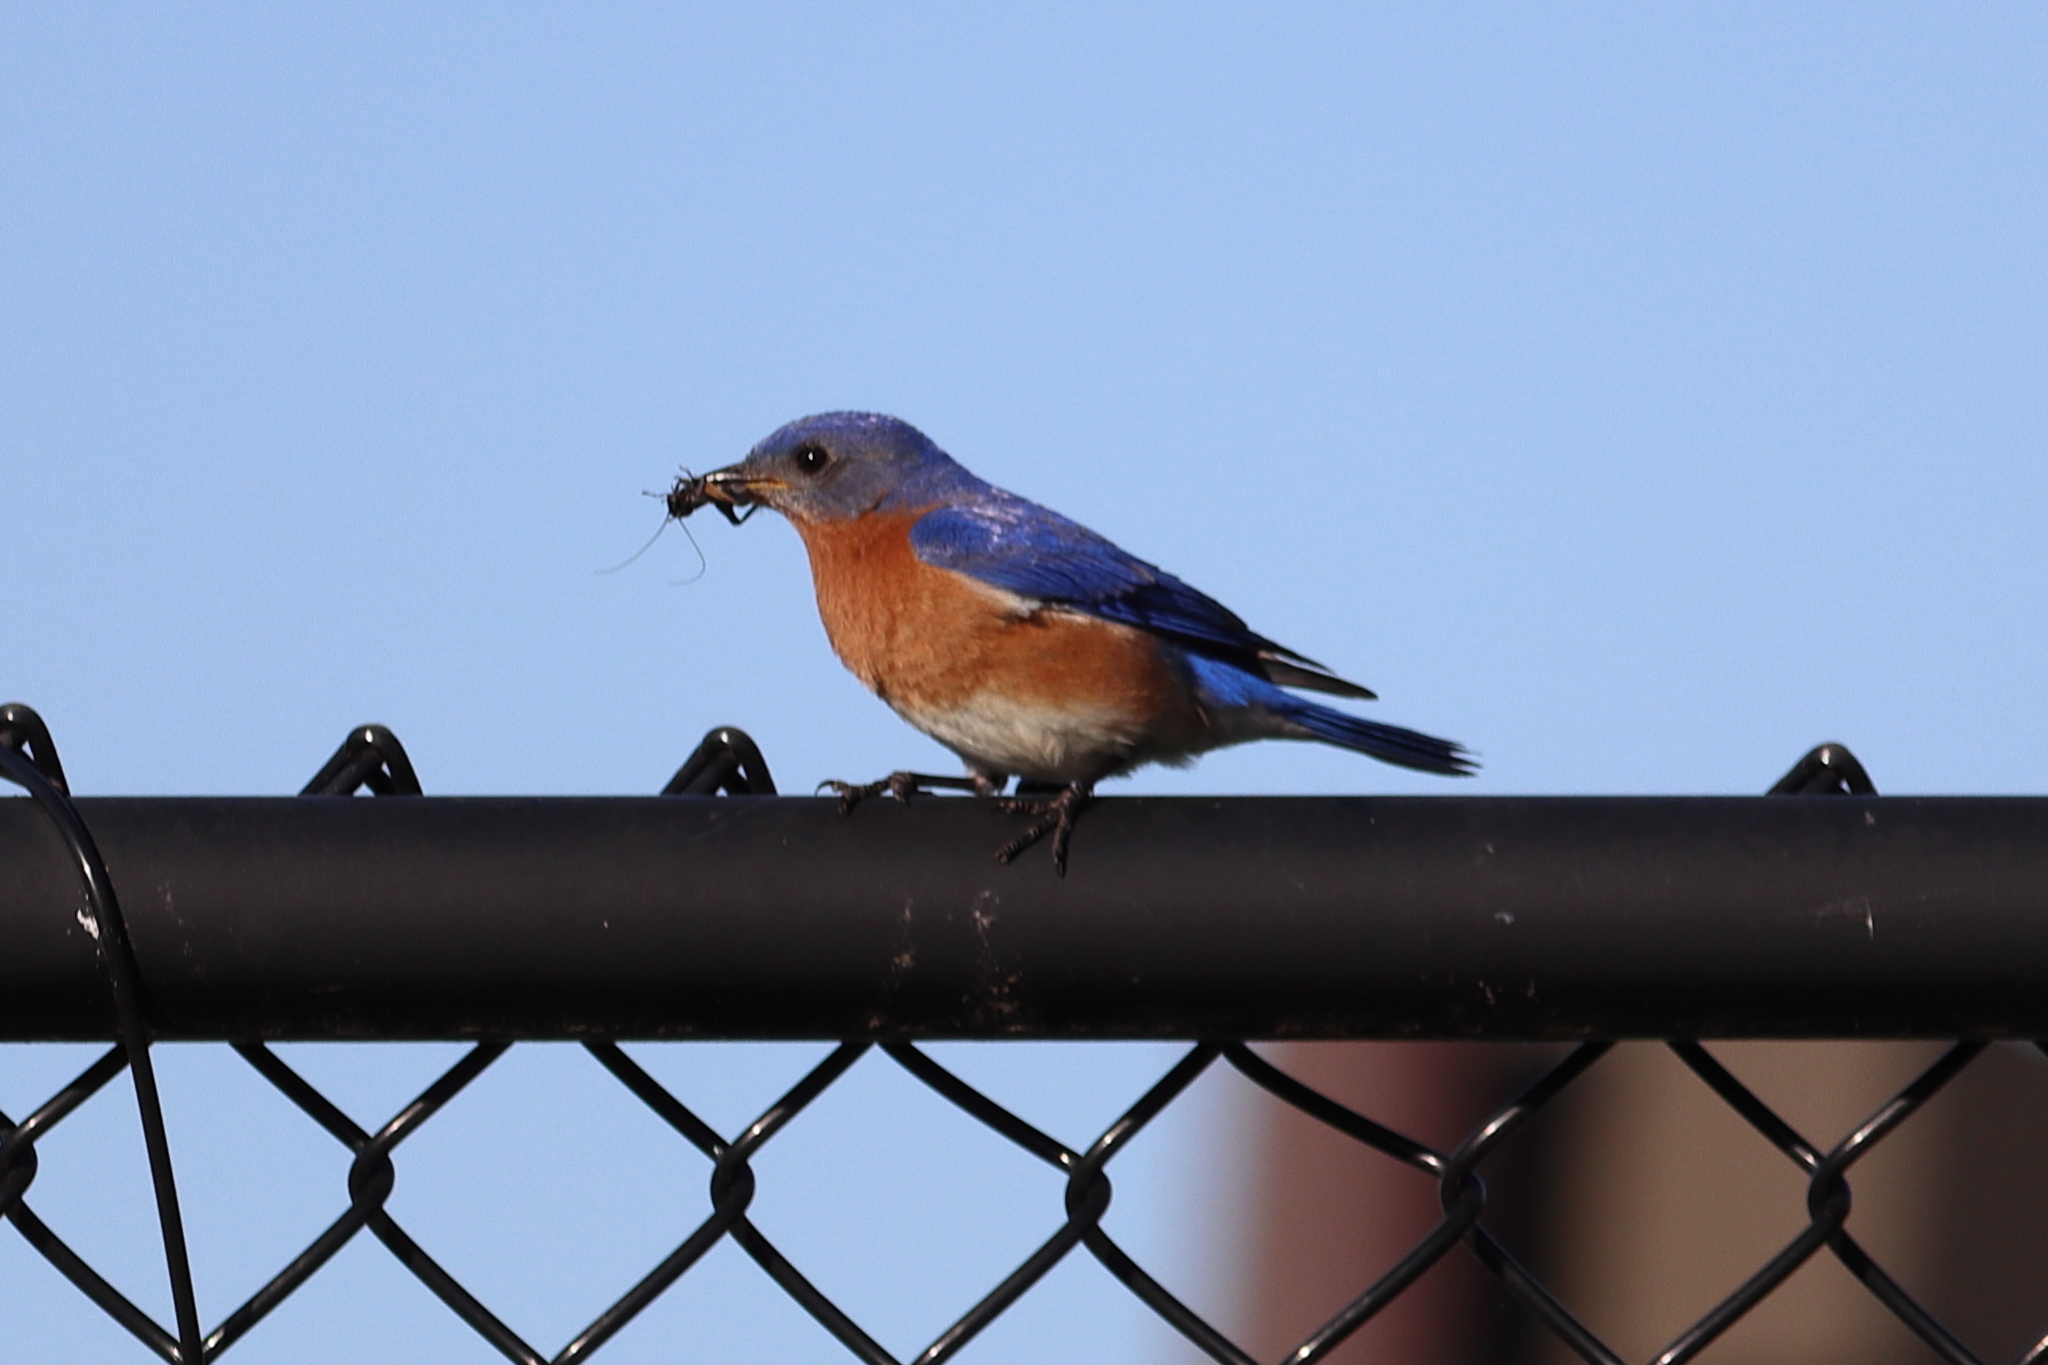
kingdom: Animalia
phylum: Chordata
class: Aves
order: Passeriformes
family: Turdidae
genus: Sialia
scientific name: Sialia sialis
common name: Eastern bluebird
